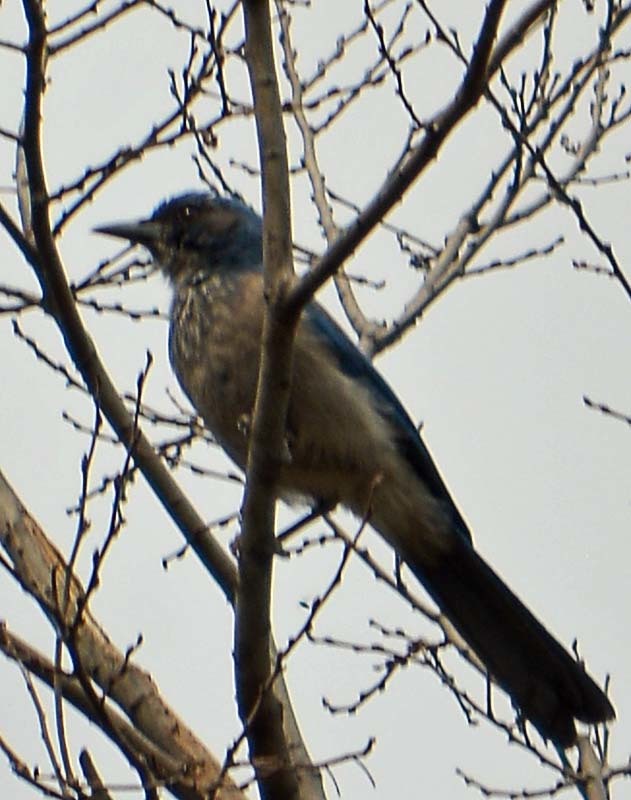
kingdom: Animalia
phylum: Chordata
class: Aves
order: Passeriformes
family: Corvidae
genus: Aphelocoma
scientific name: Aphelocoma woodhouseii
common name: Woodhouse's scrub-jay
